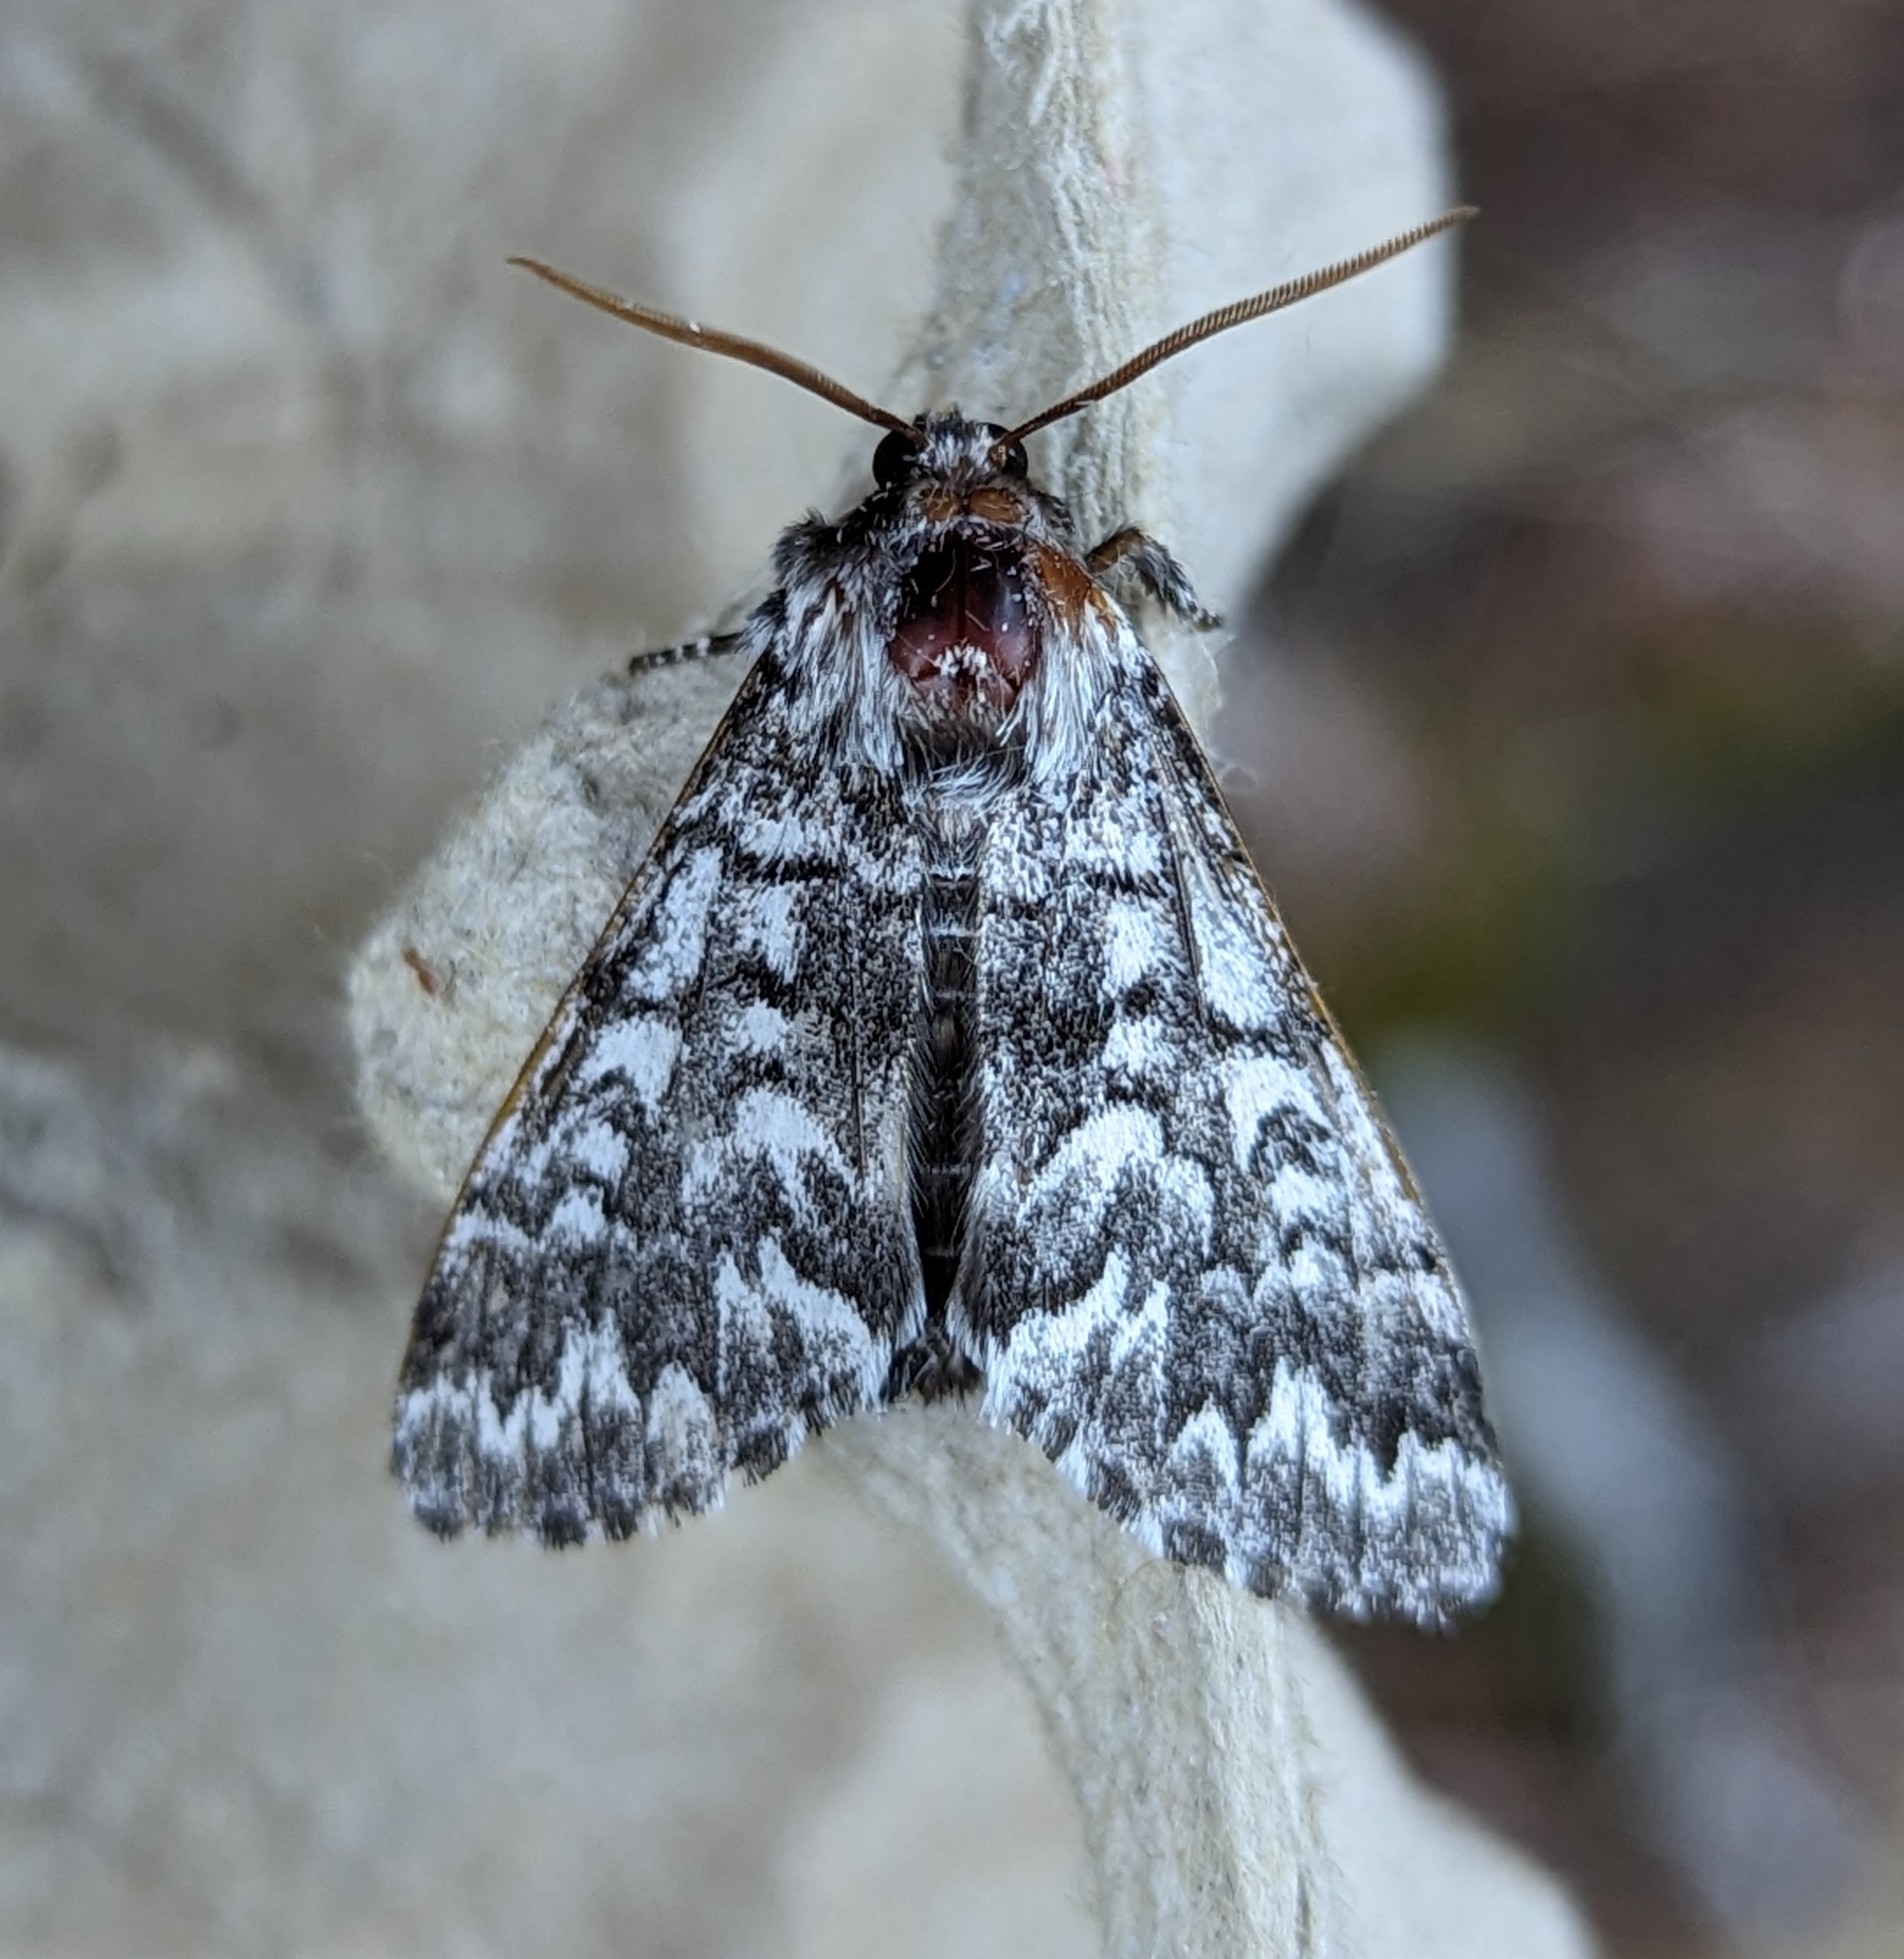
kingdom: Animalia
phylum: Arthropoda
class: Insecta
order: Lepidoptera
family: Noctuidae
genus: Panthea
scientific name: Panthea virginarius
